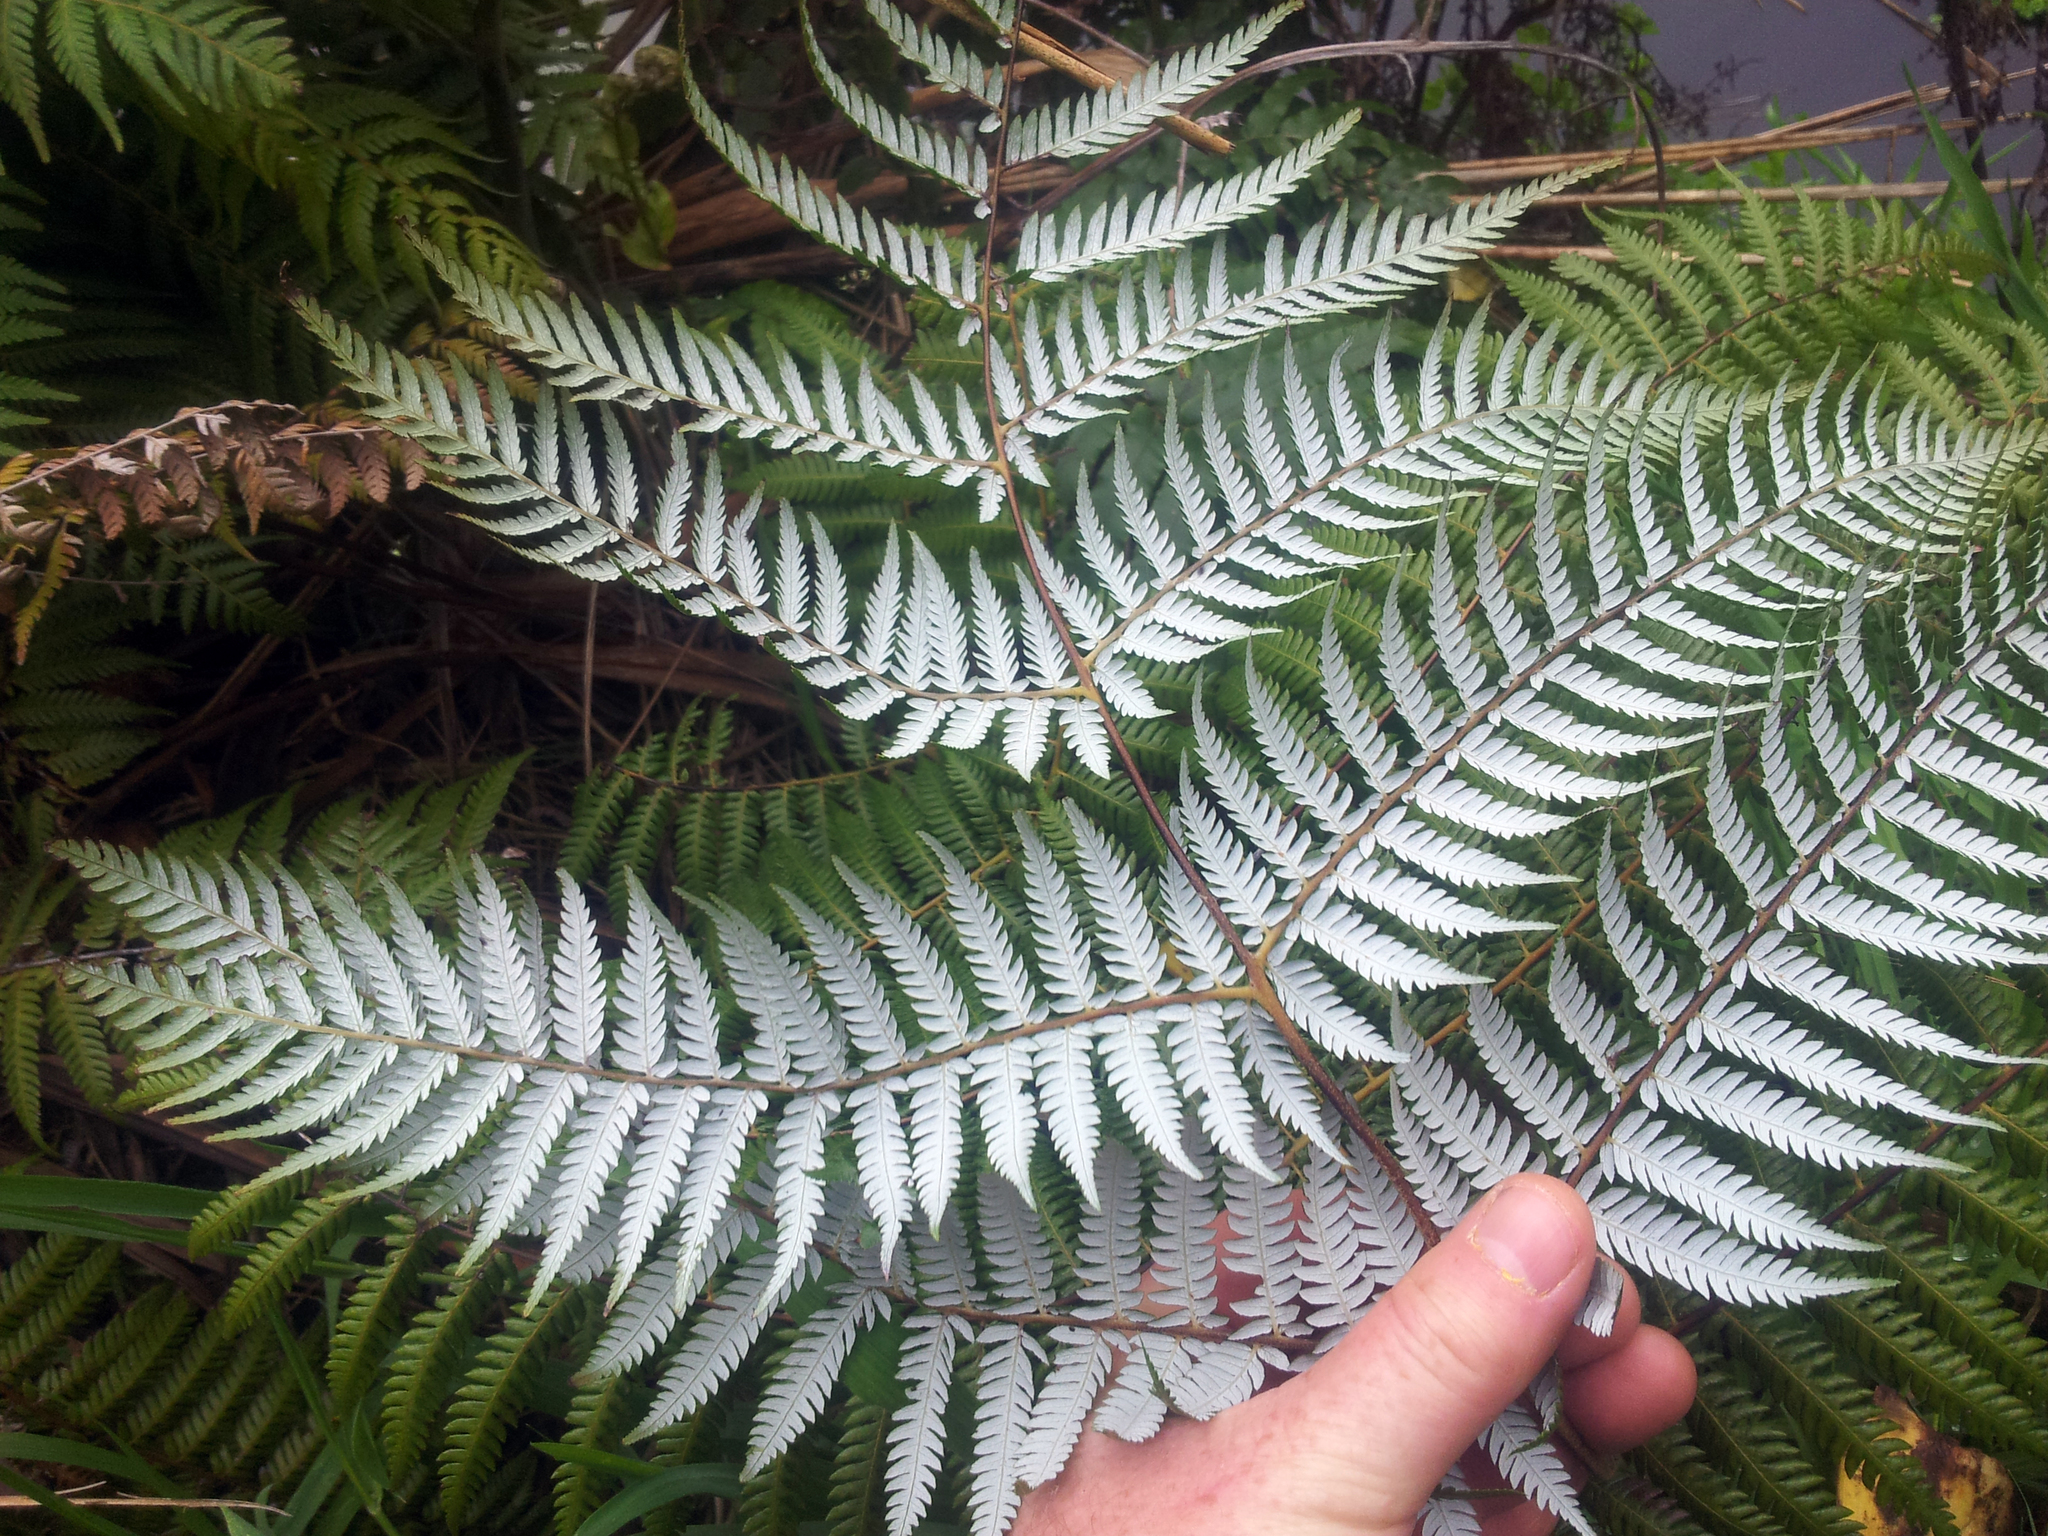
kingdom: Plantae
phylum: Tracheophyta
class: Polypodiopsida
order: Cyatheales
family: Cyatheaceae
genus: Alsophila
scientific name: Alsophila dealbata
